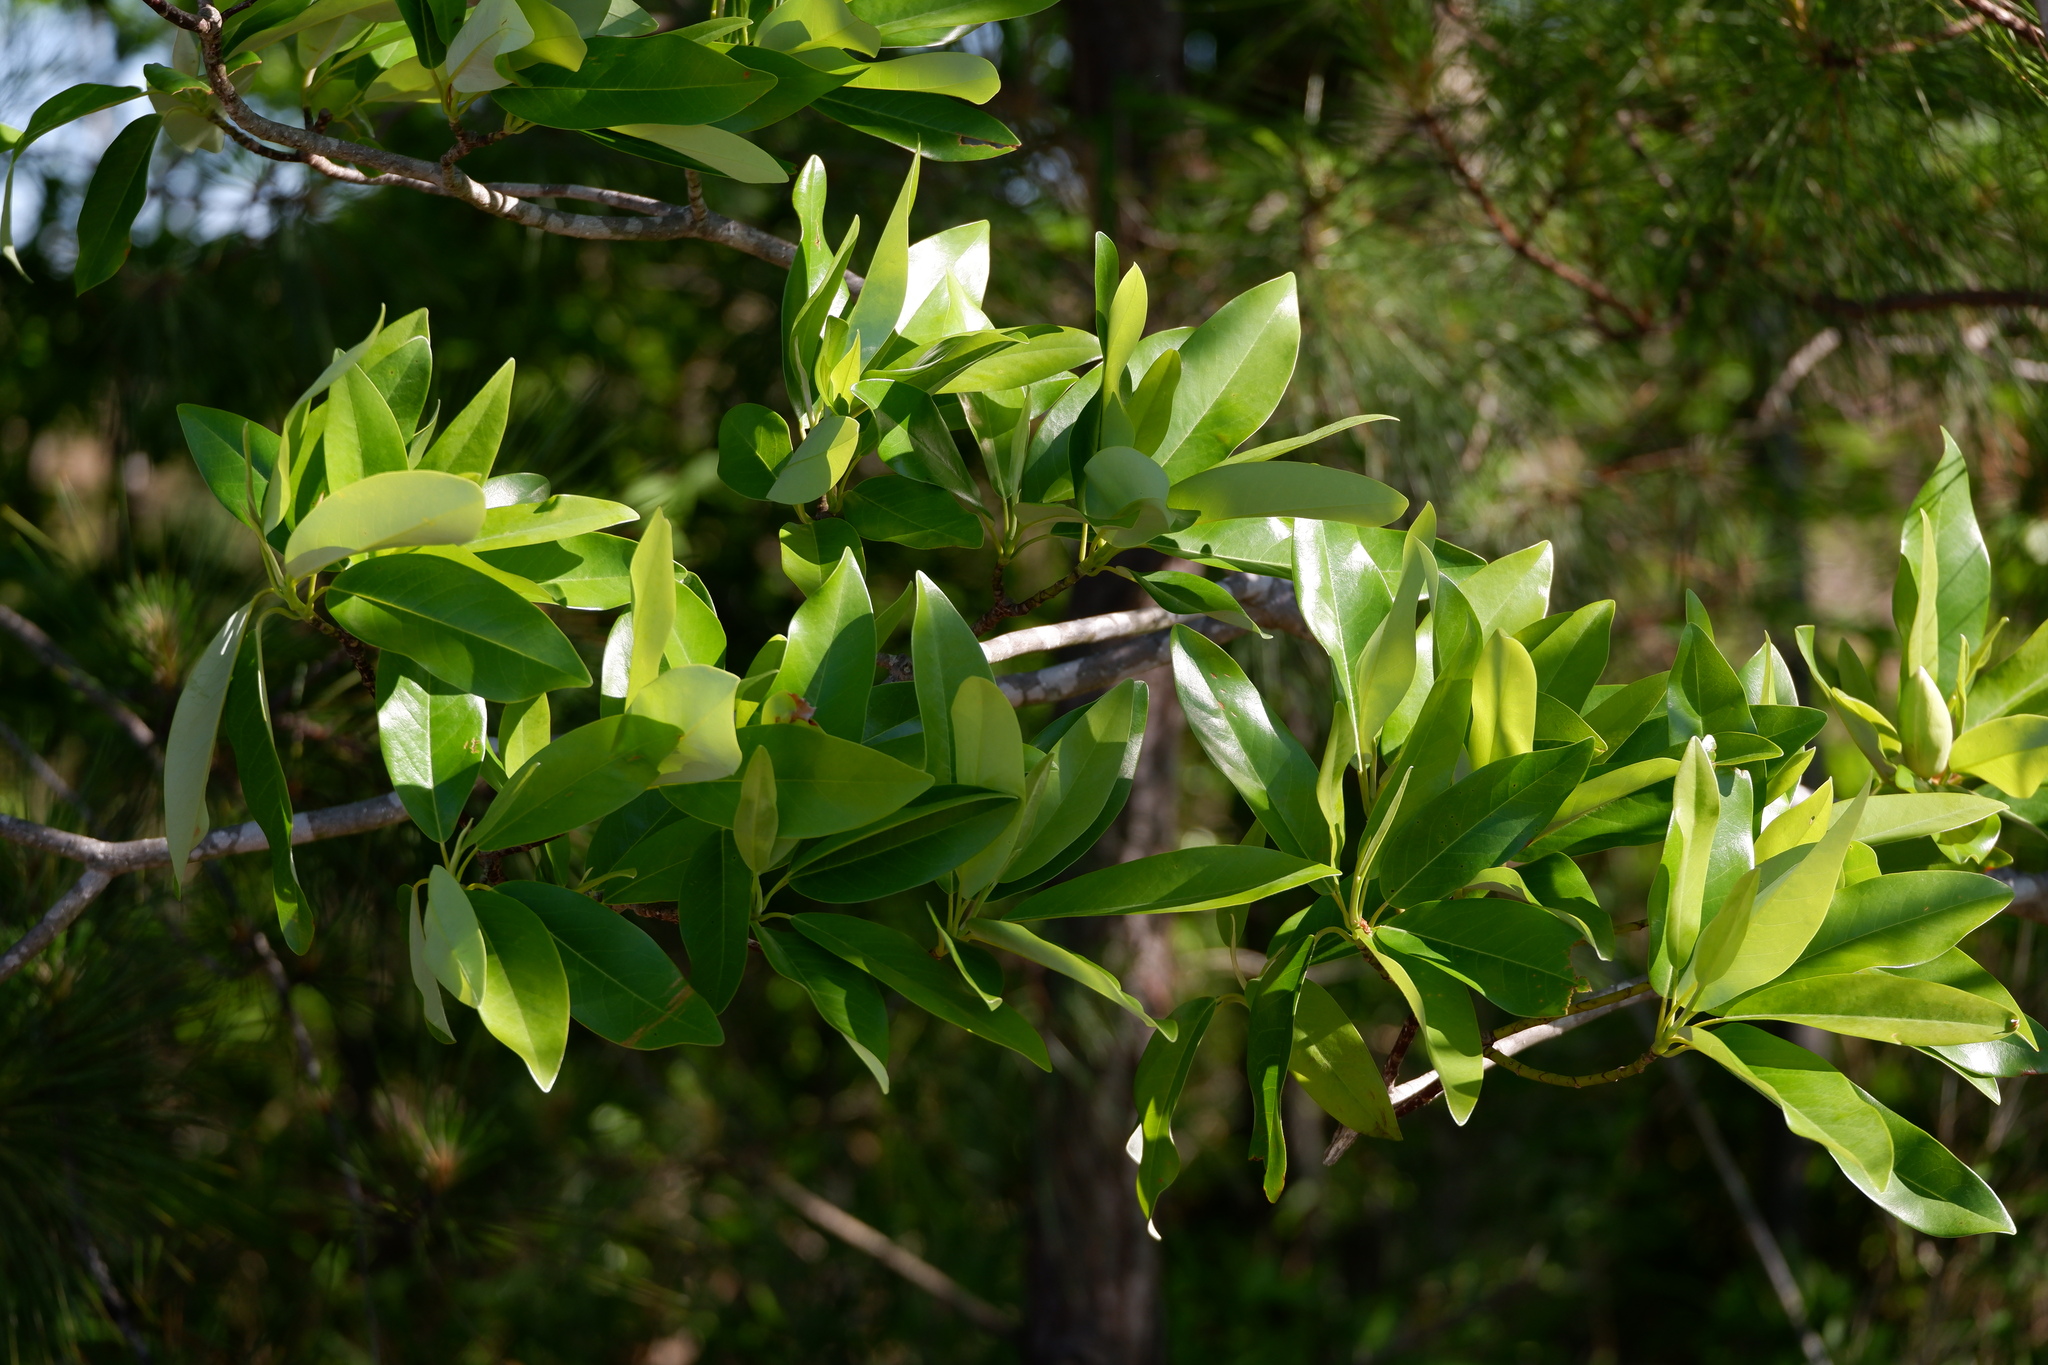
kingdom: Plantae
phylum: Tracheophyta
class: Magnoliopsida
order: Magnoliales
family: Magnoliaceae
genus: Magnolia
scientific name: Magnolia virginiana
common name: Swamp bay
